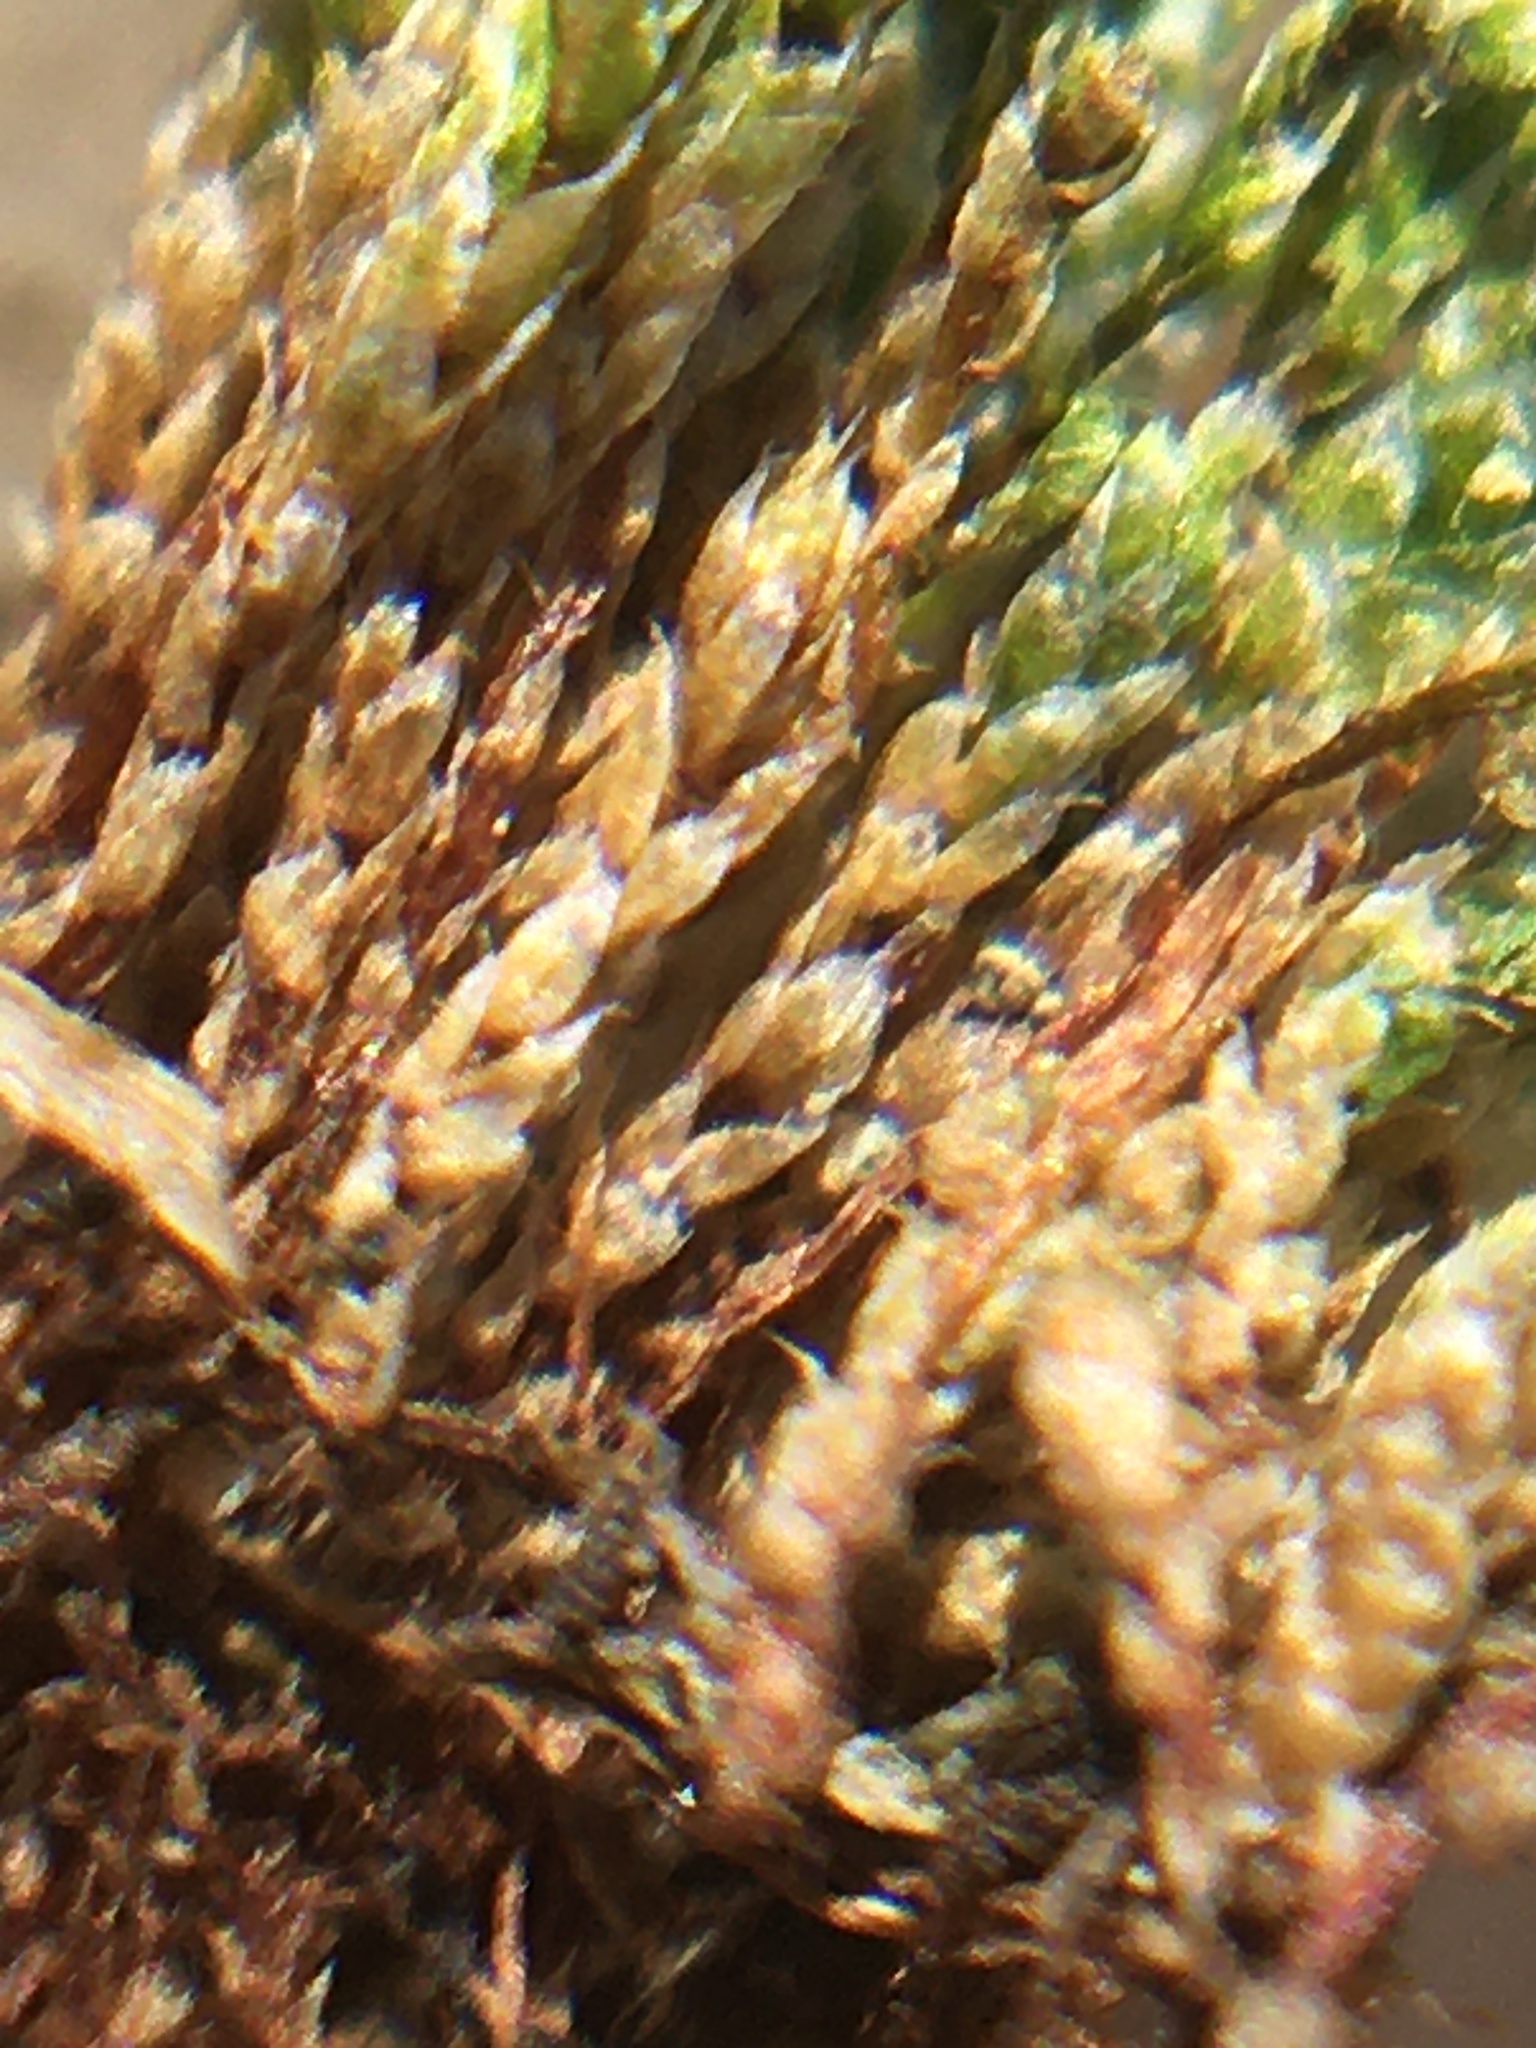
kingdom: Plantae
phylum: Bryophyta
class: Bryopsida
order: Bryales
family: Bryaceae
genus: Bryum
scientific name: Bryum argenteum
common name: Silver-moss
